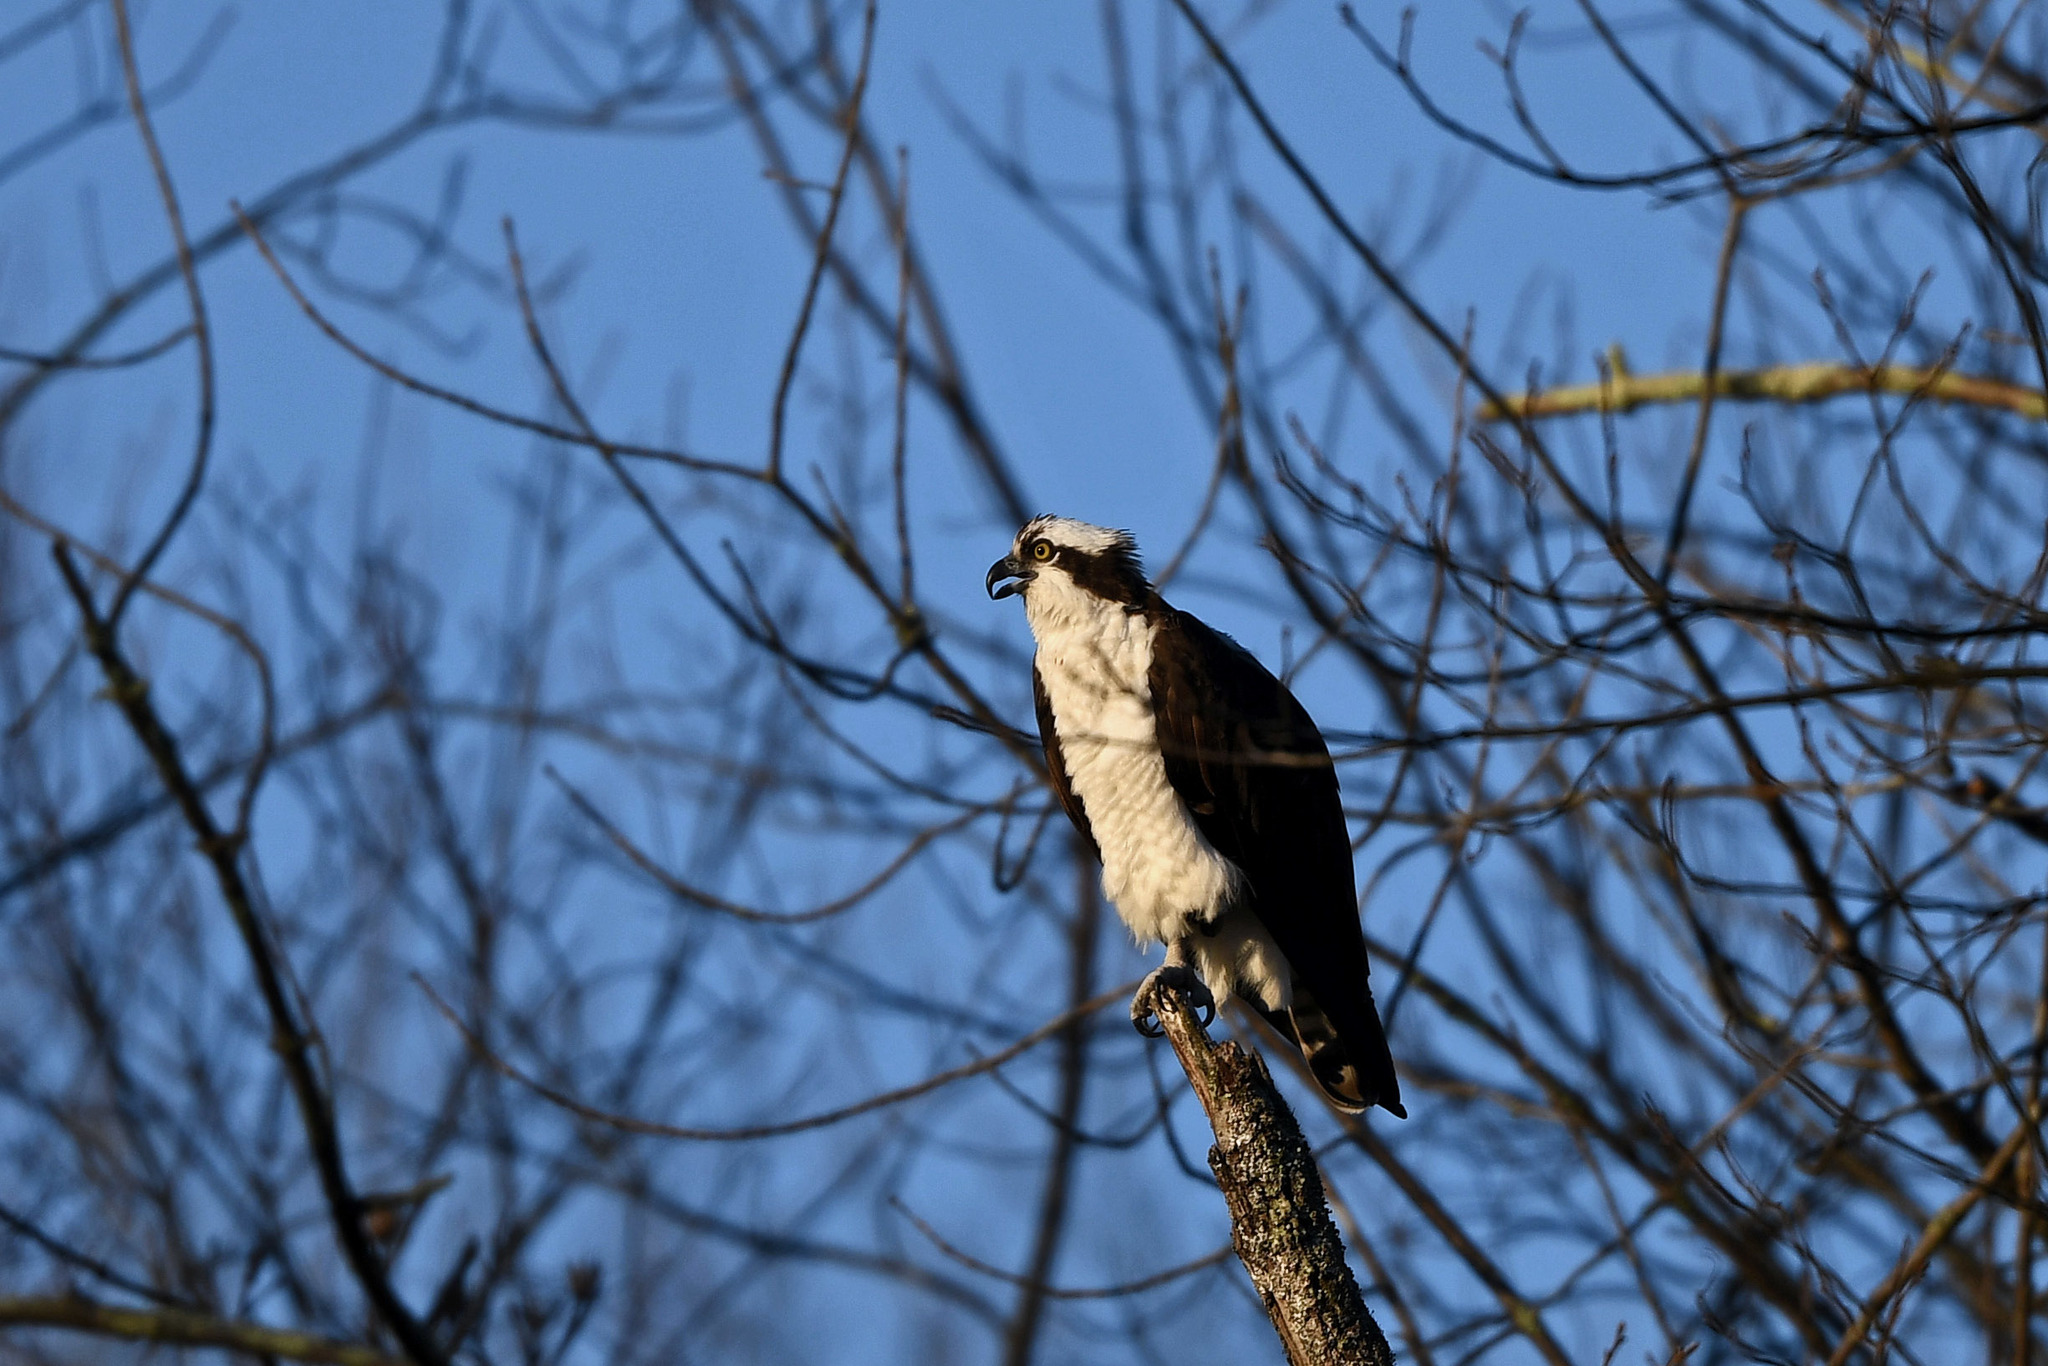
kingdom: Animalia
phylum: Chordata
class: Aves
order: Accipitriformes
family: Pandionidae
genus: Pandion
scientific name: Pandion haliaetus
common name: Osprey
